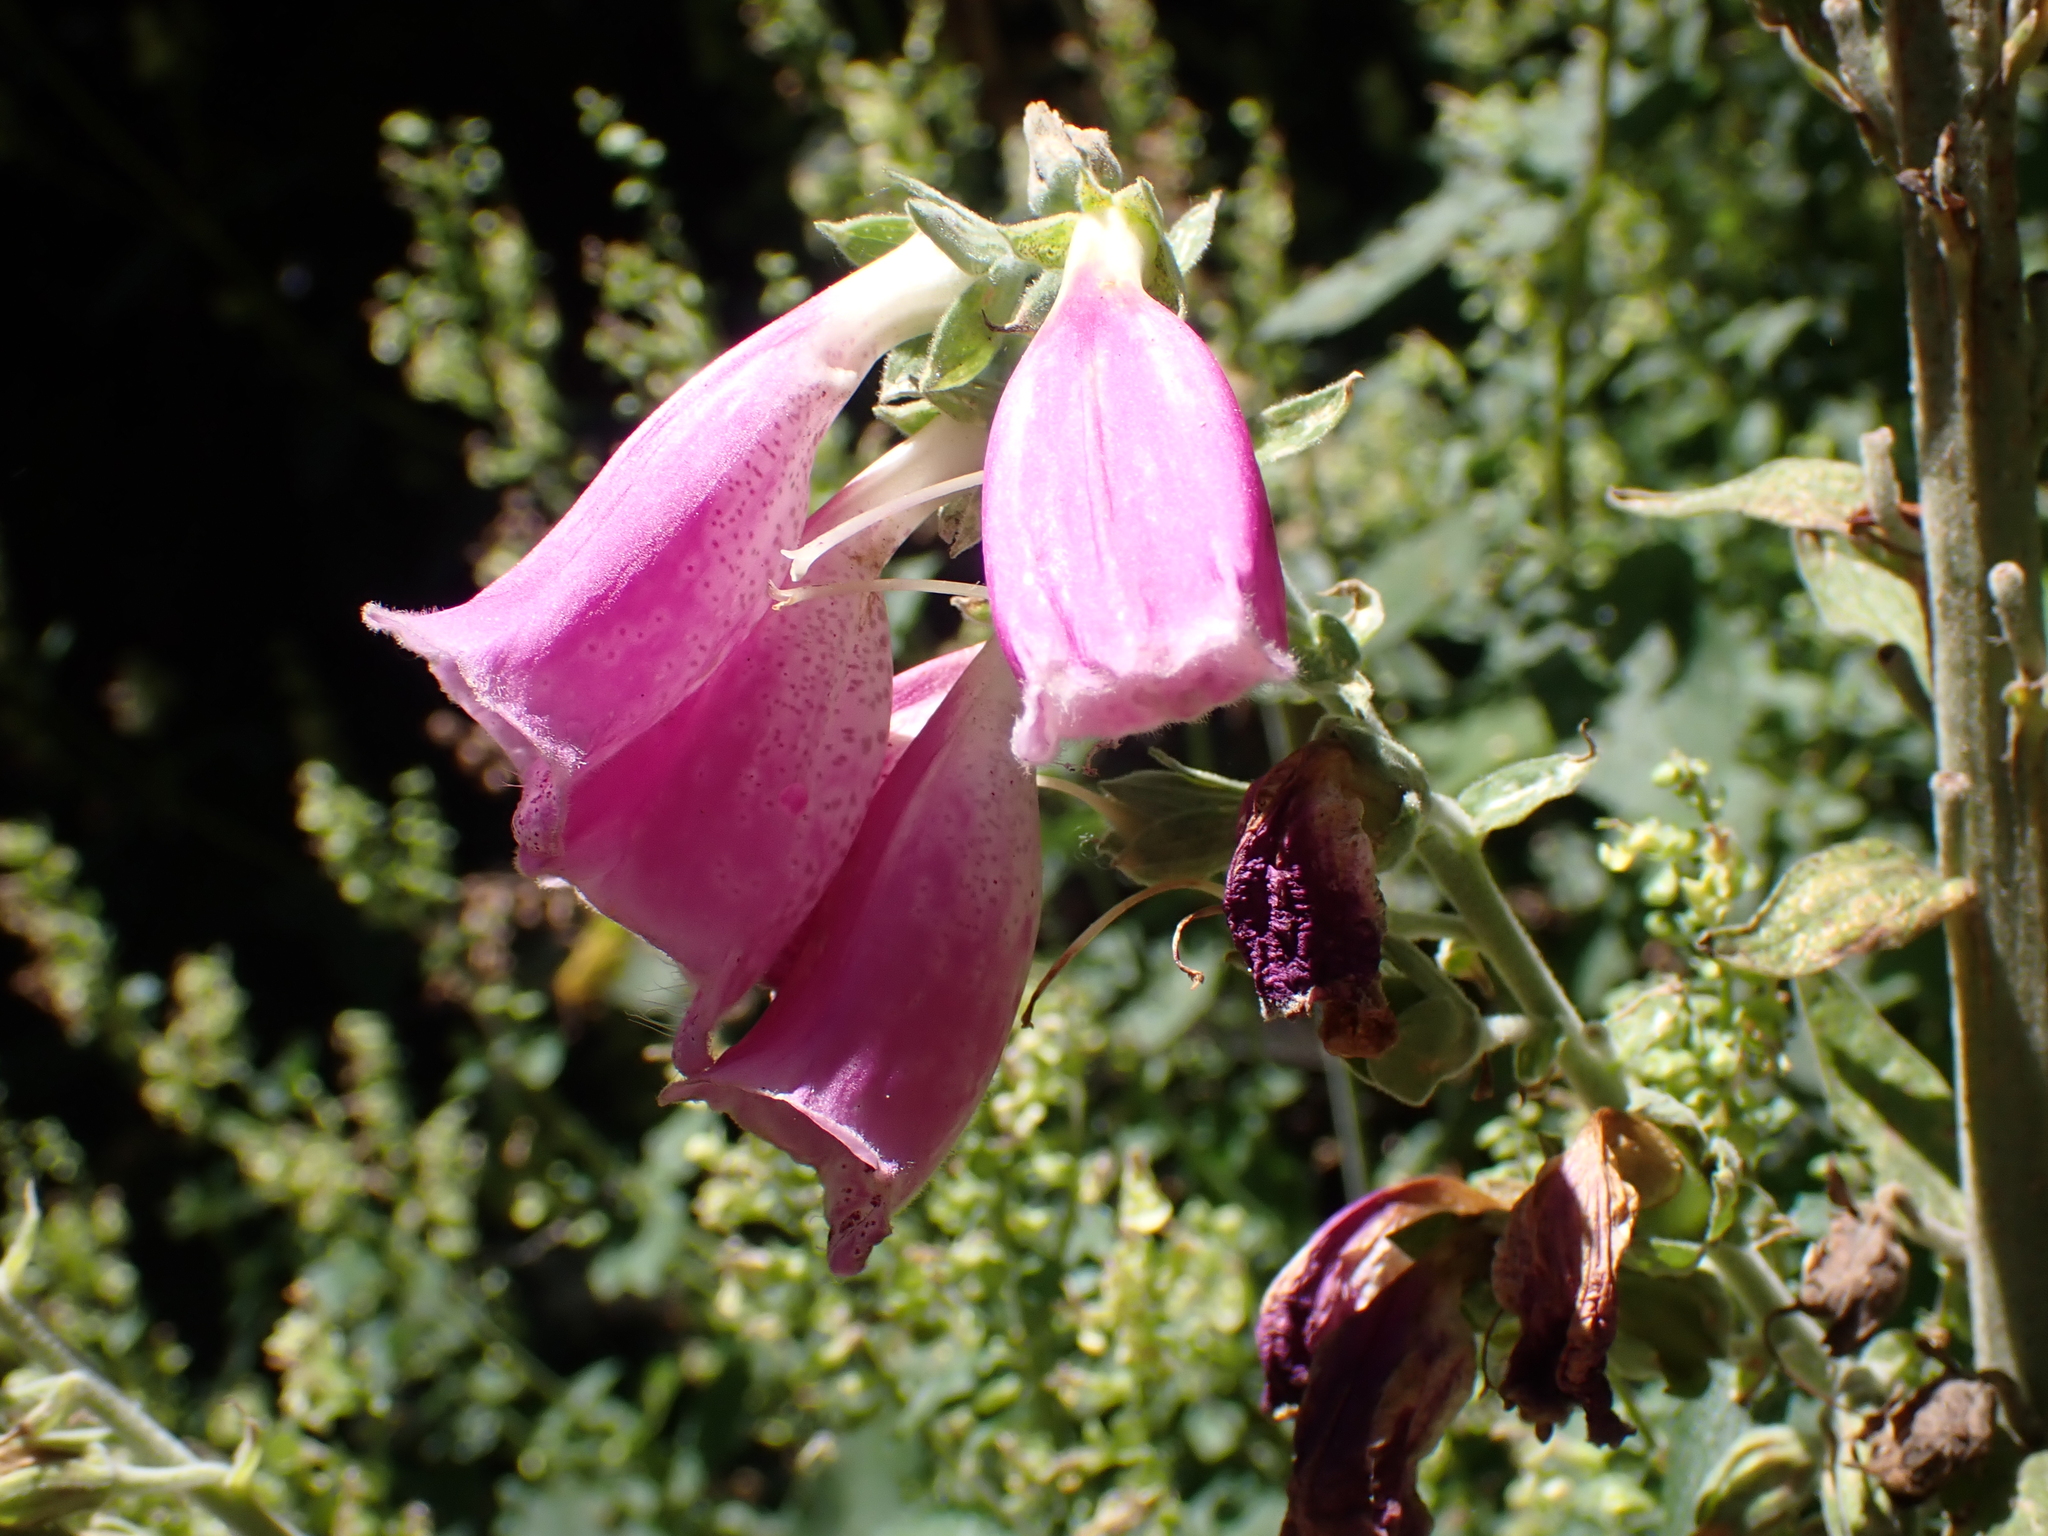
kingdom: Plantae
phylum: Tracheophyta
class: Magnoliopsida
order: Lamiales
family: Plantaginaceae
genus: Digitalis
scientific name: Digitalis purpurea
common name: Foxglove
